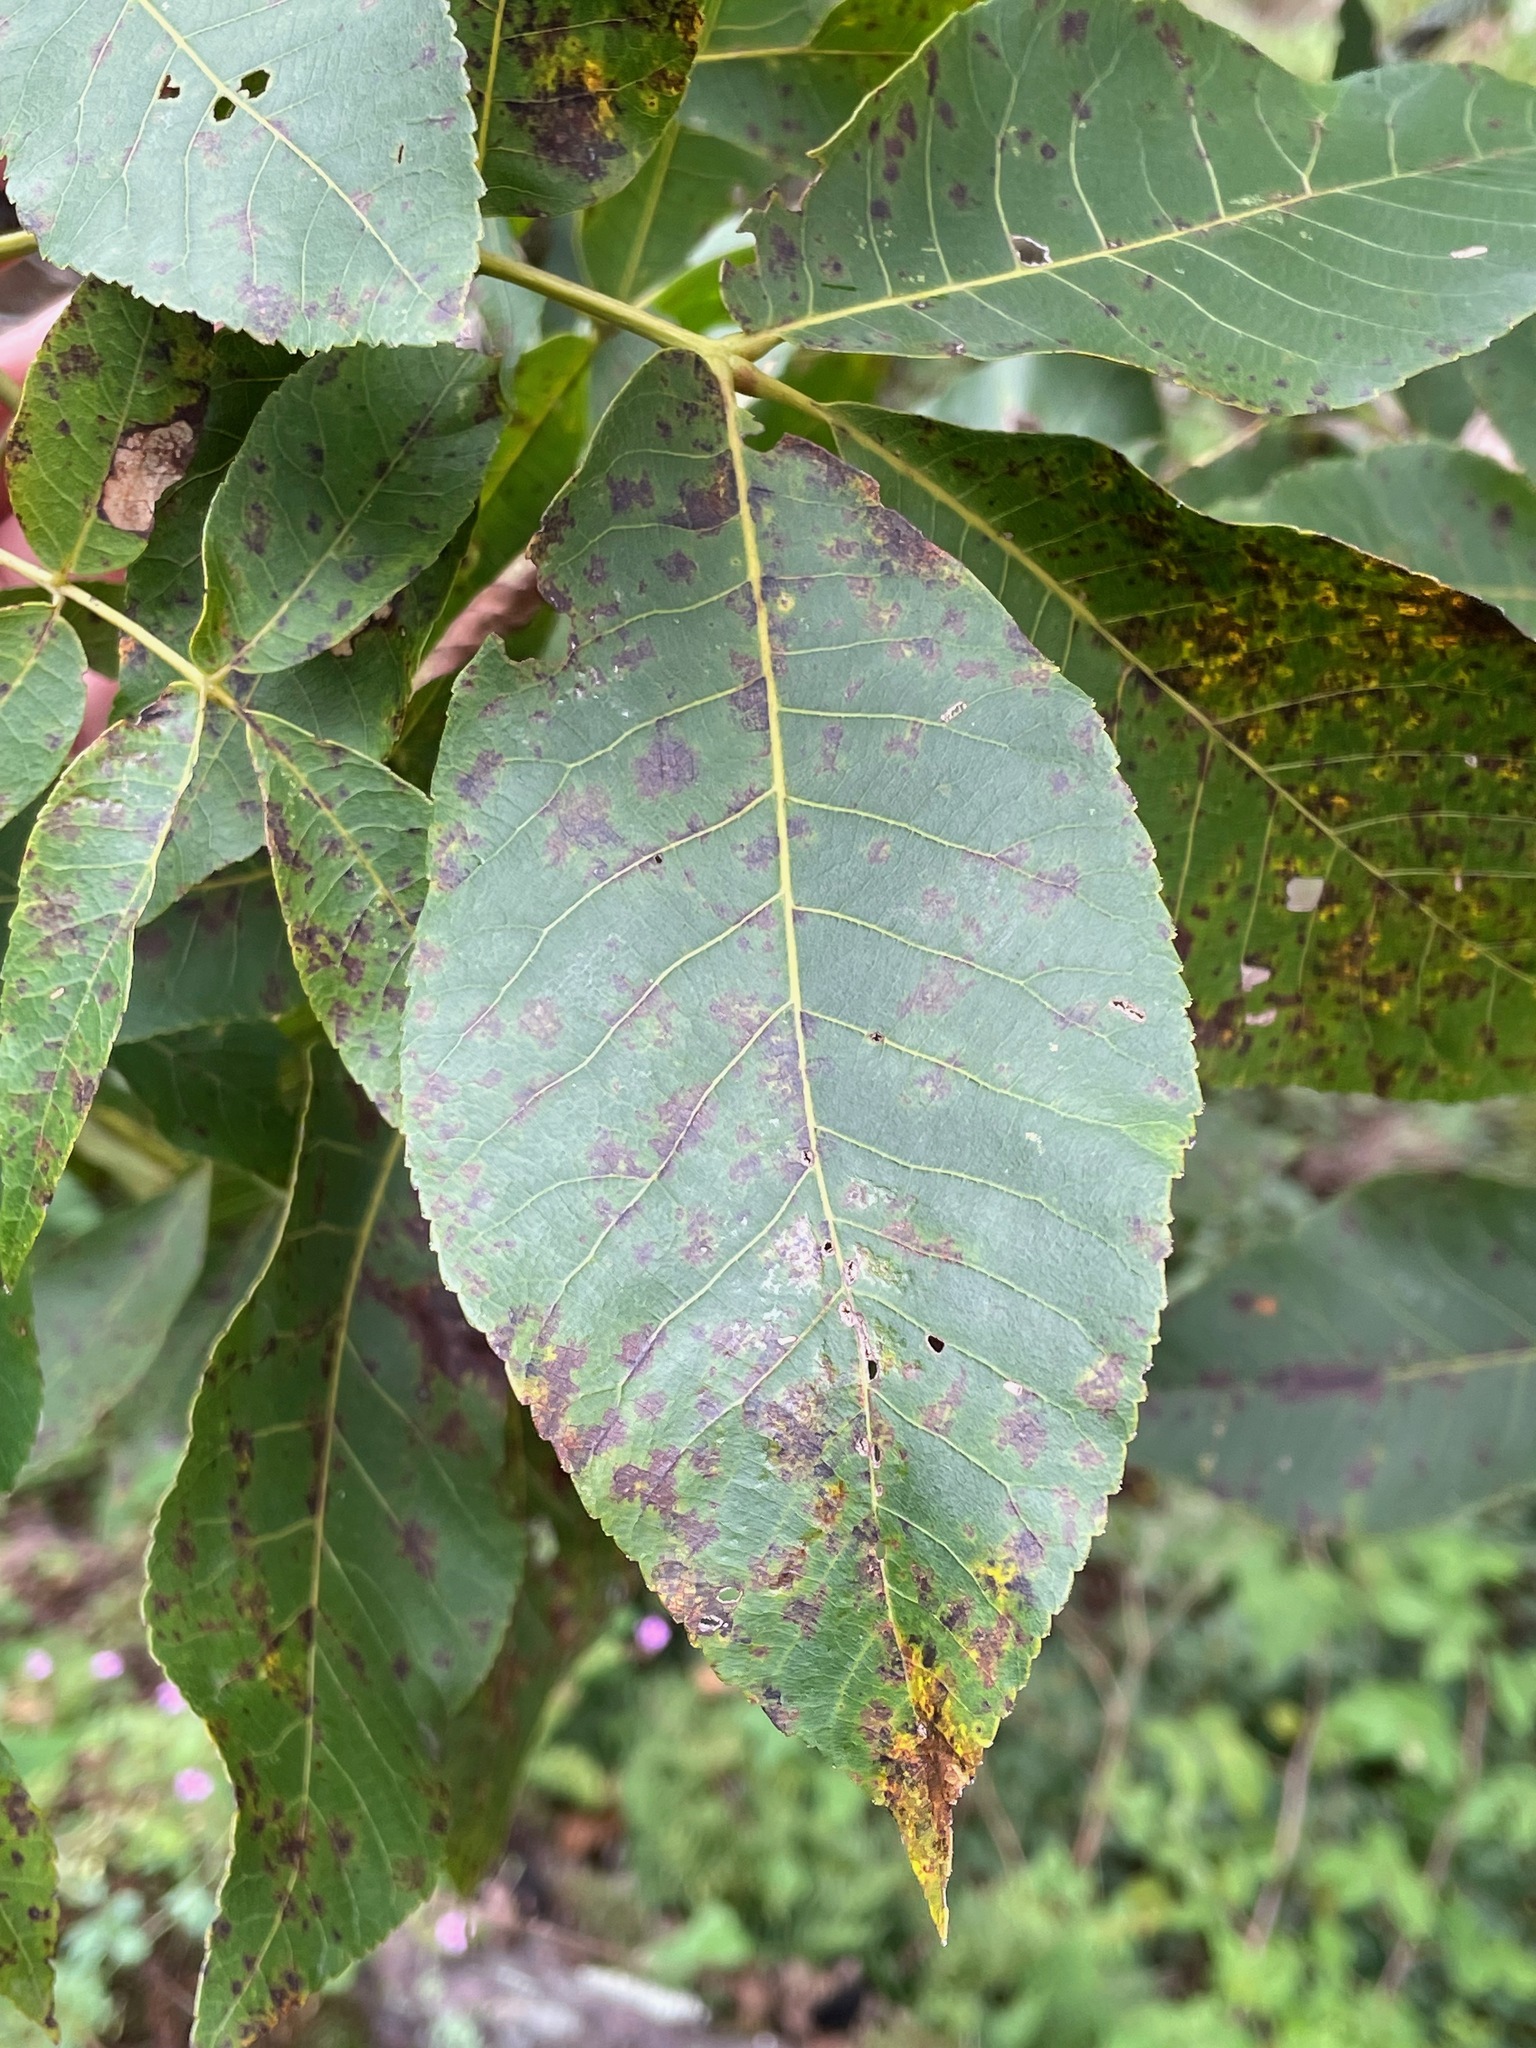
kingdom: Plantae
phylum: Tracheophyta
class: Magnoliopsida
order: Fagales
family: Juglandaceae
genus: Carya
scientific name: Carya ovata
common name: Shagbark hickory
